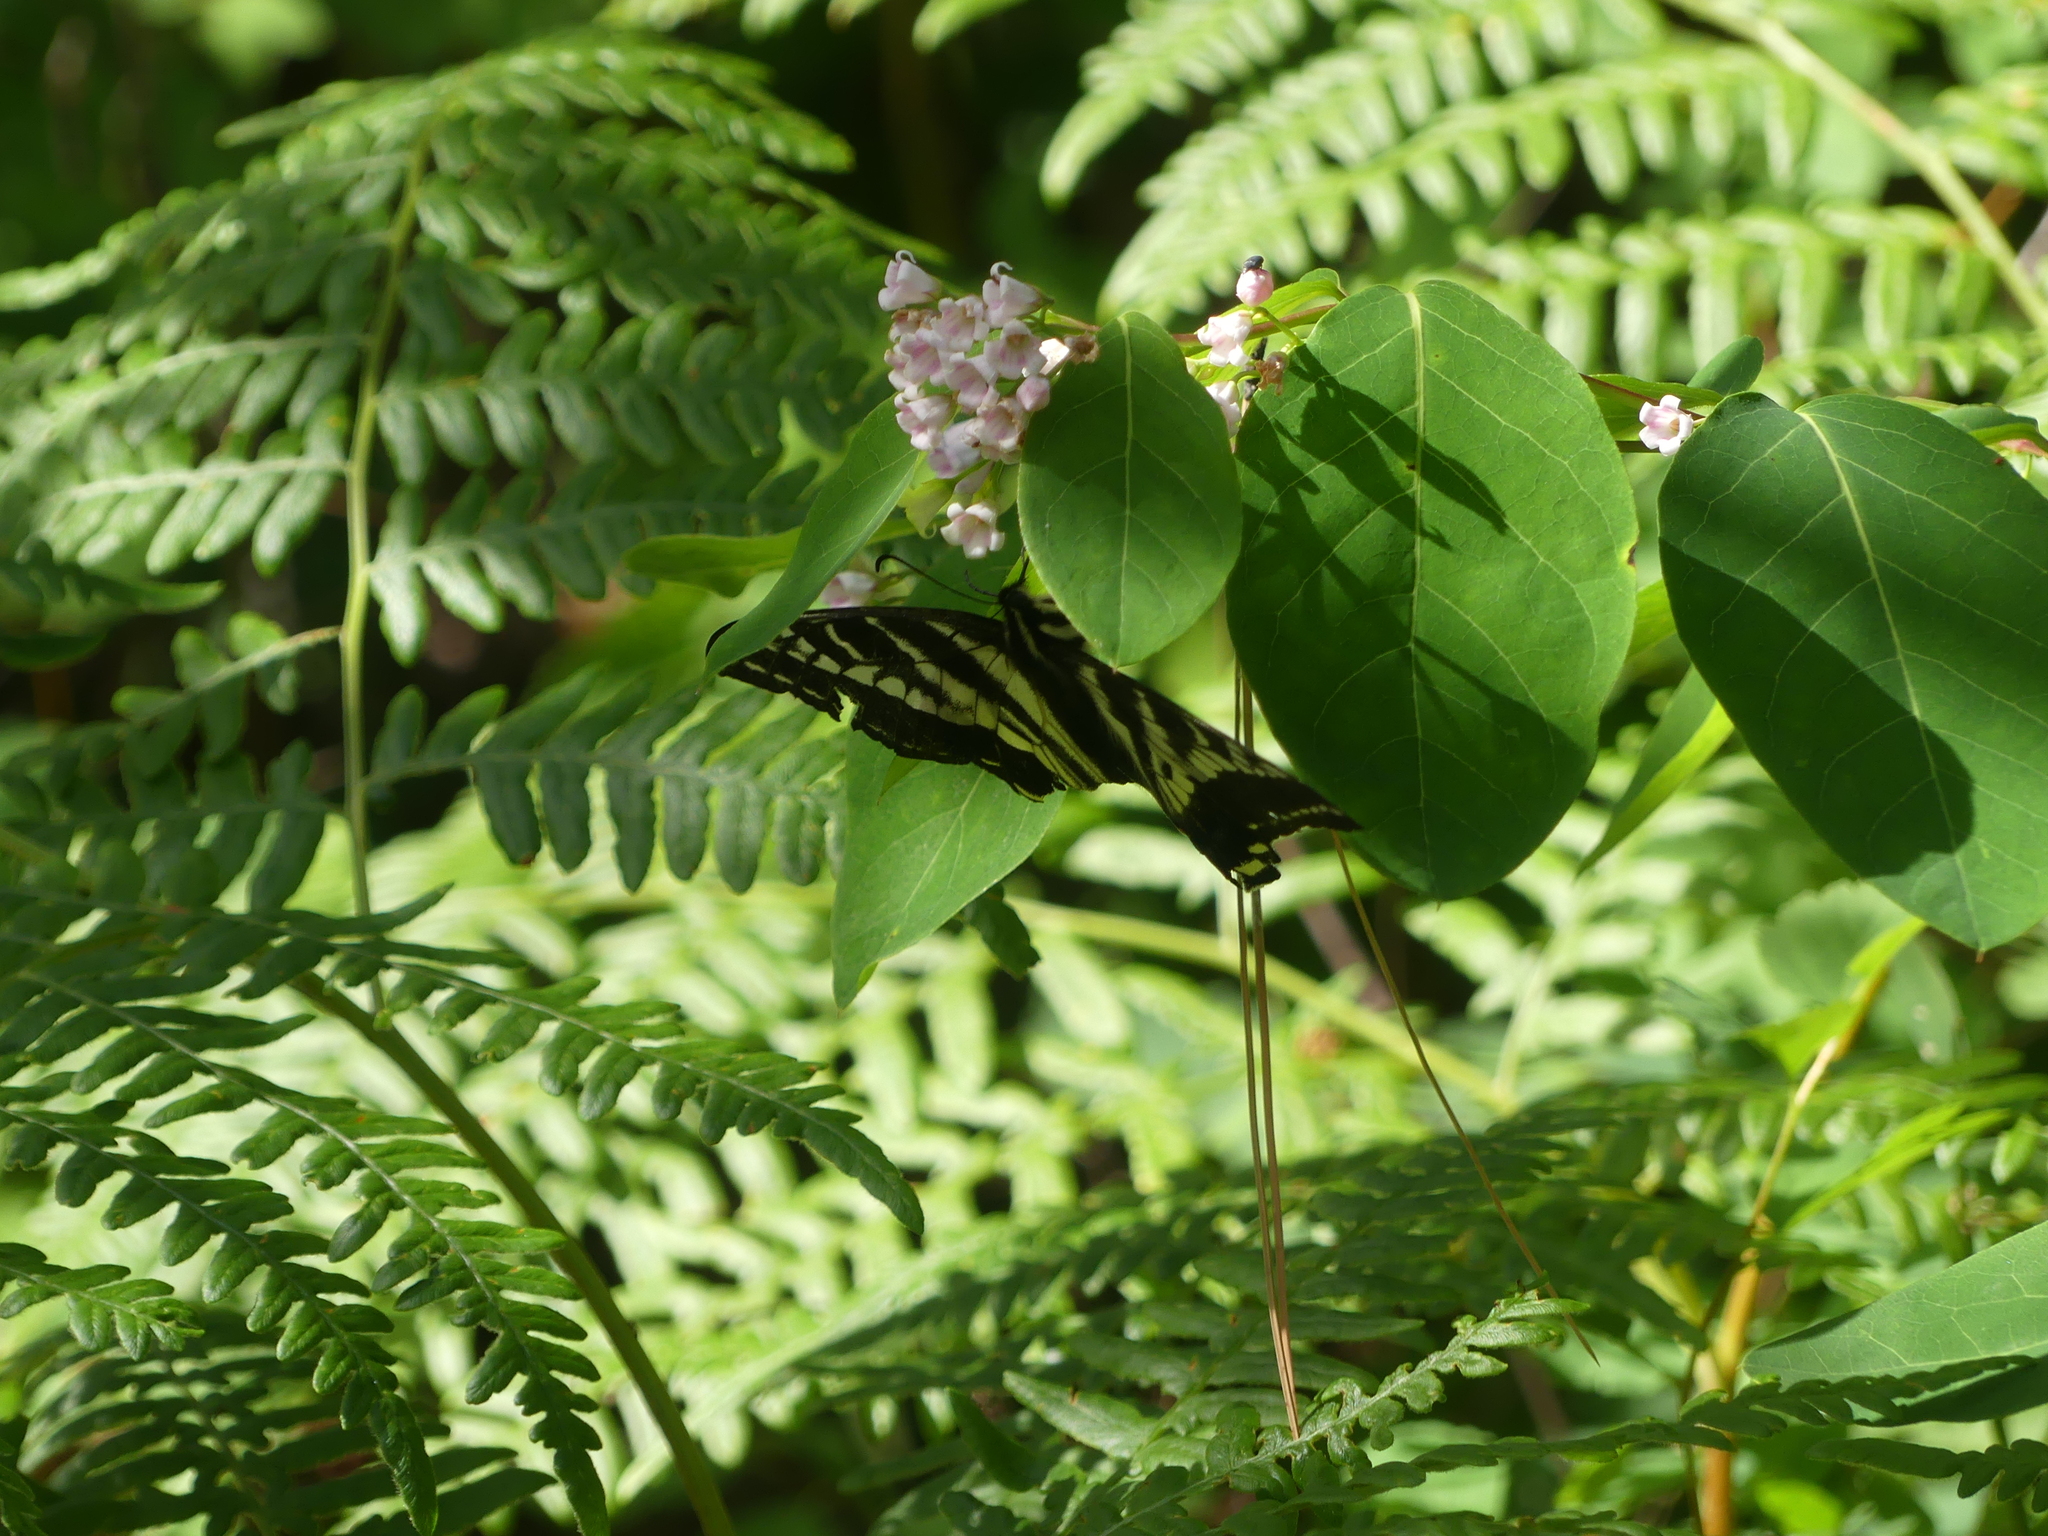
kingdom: Animalia
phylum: Arthropoda
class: Insecta
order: Lepidoptera
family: Papilionidae
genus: Papilio
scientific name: Papilio eurymedon
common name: Pale tiger swallowtail
